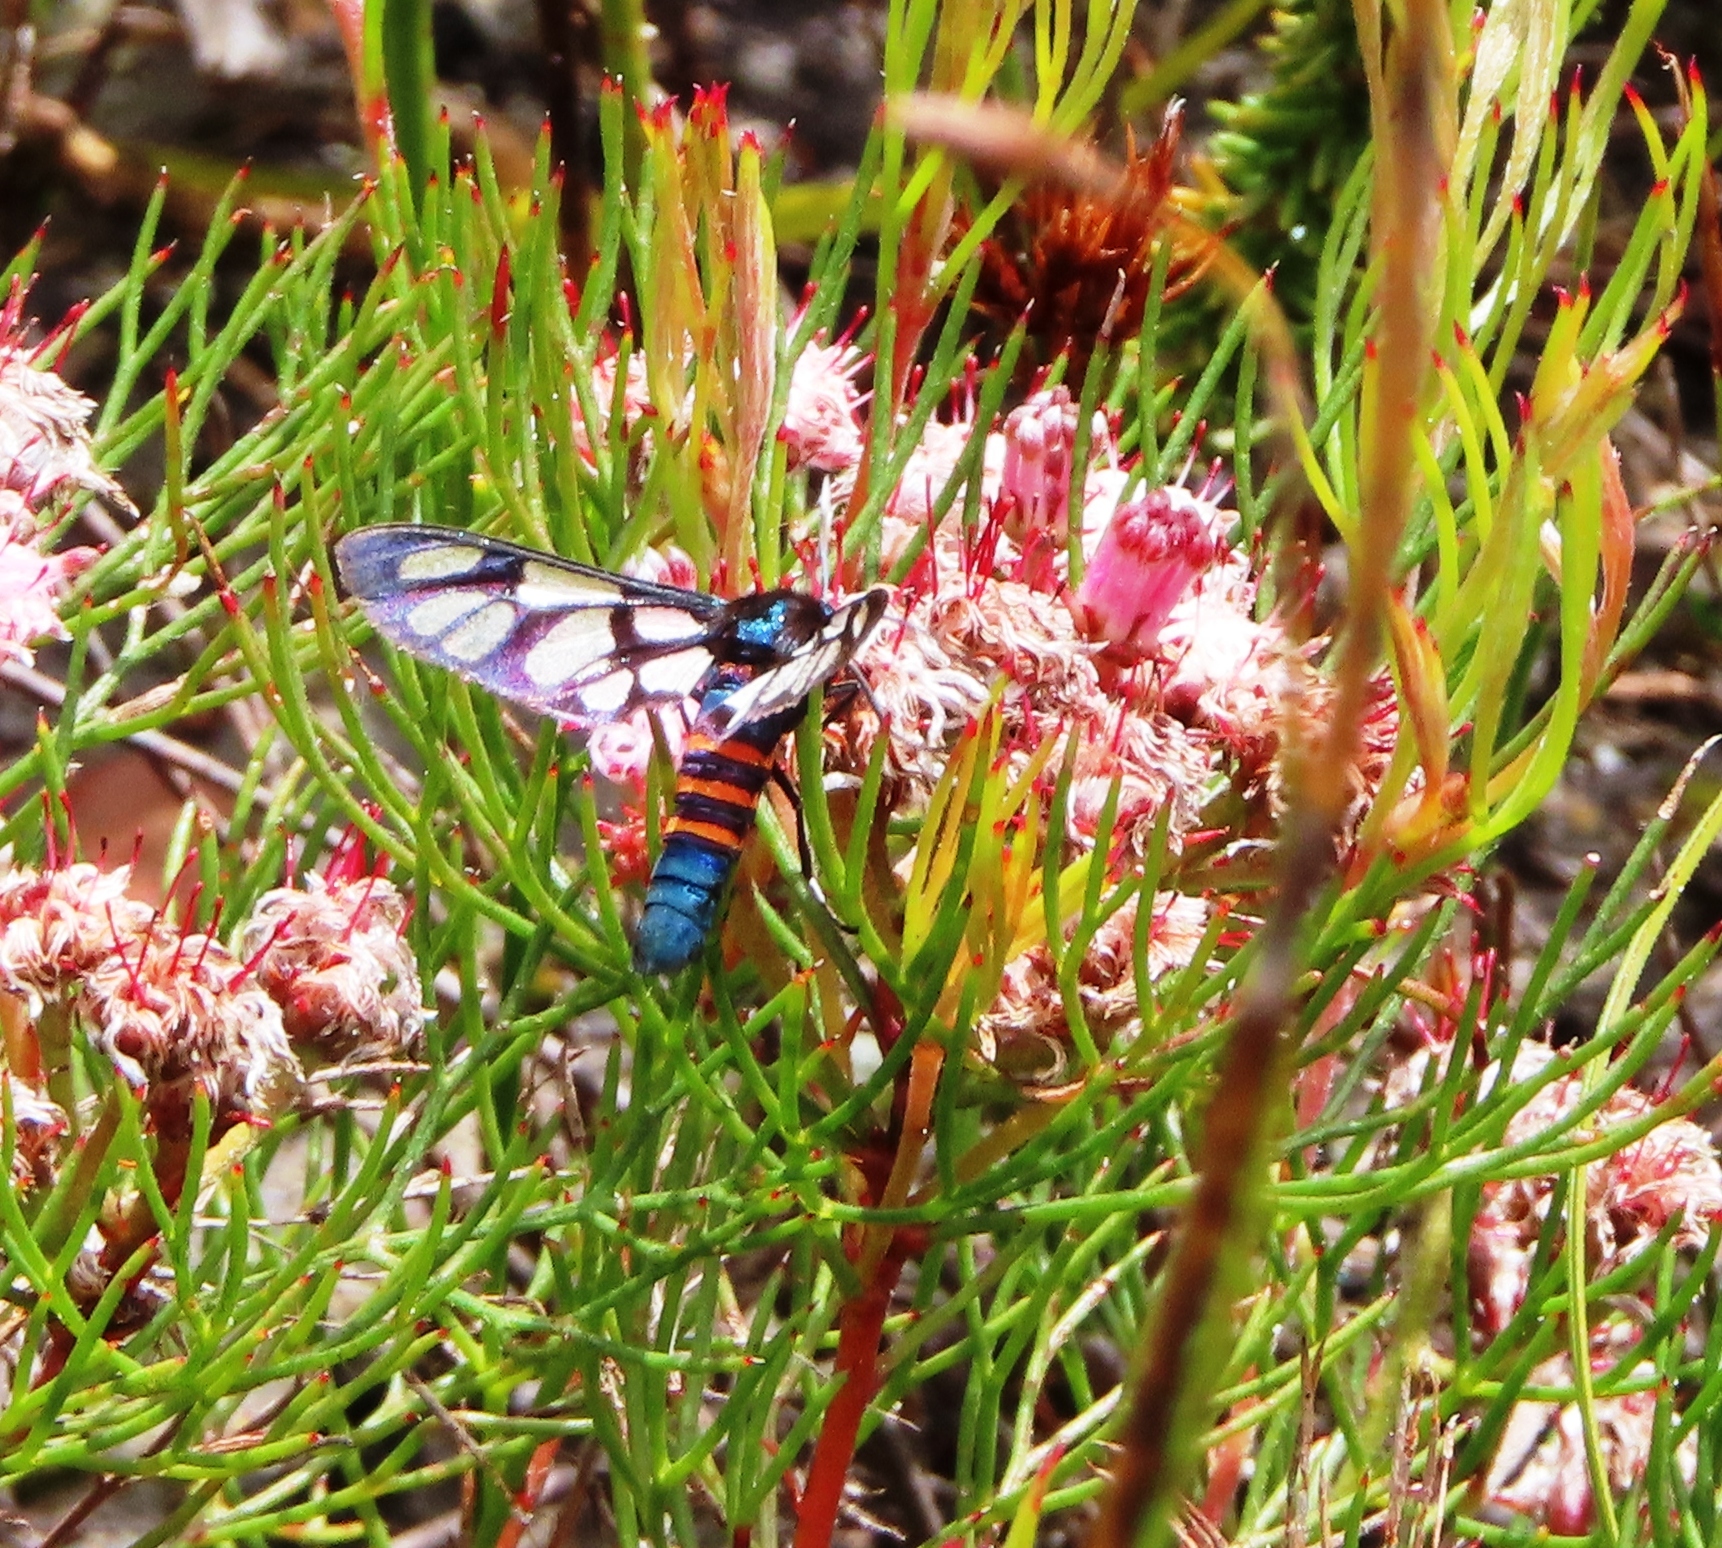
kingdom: Animalia
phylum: Arthropoda
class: Insecta
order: Lepidoptera
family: Erebidae
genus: Amata
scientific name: Amata cerbera
